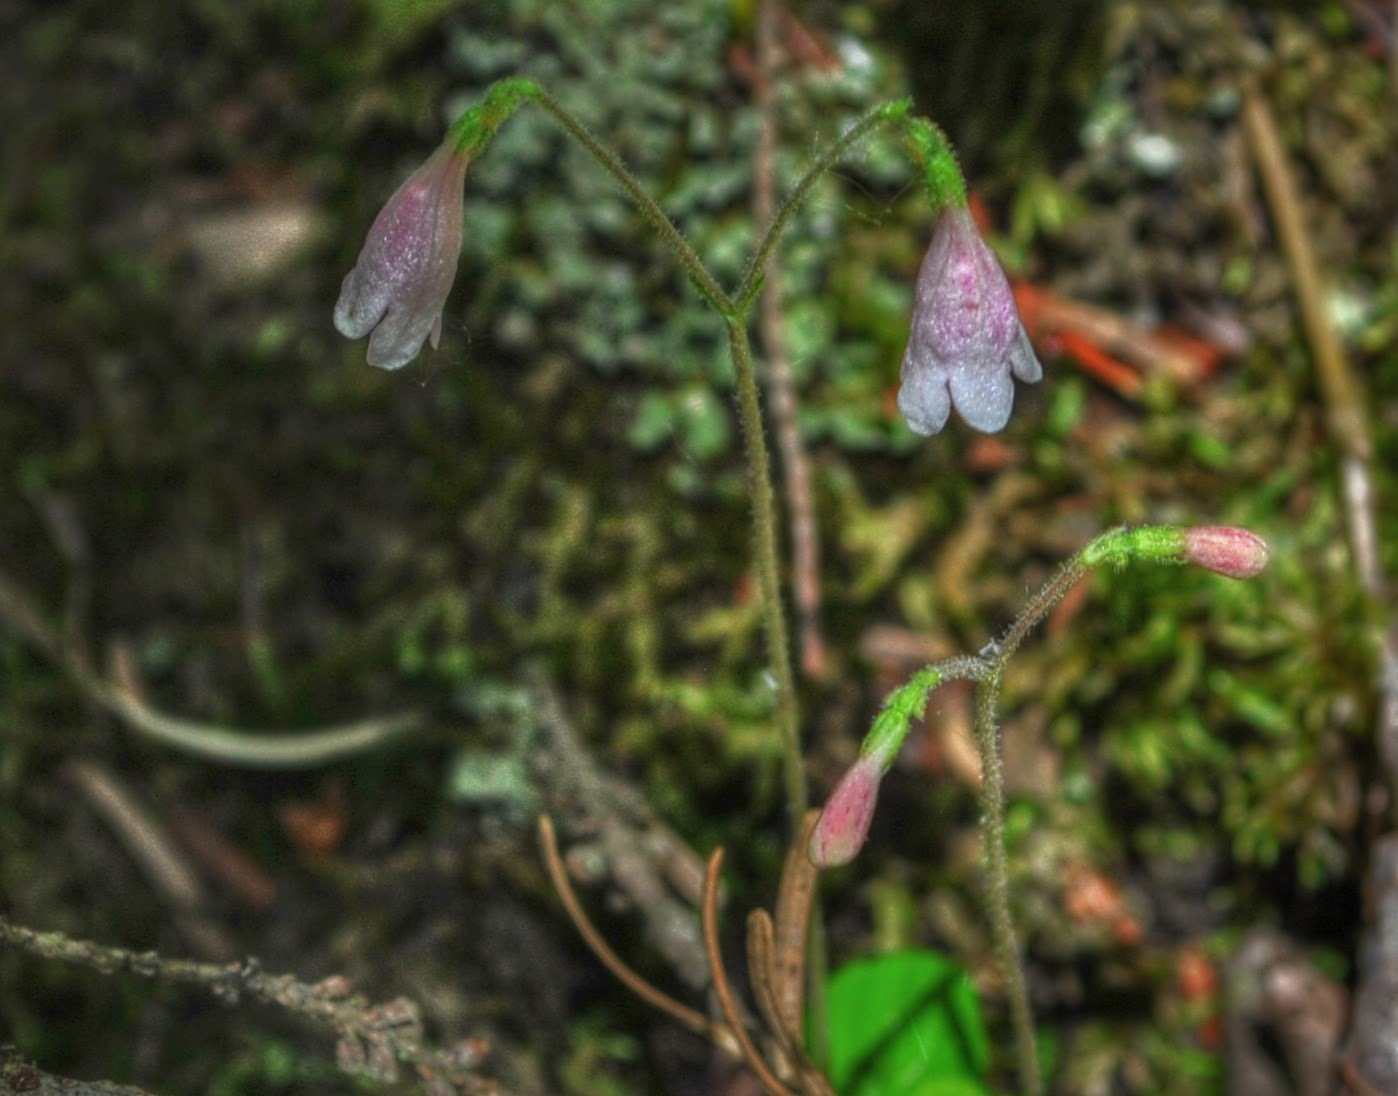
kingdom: Plantae
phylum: Tracheophyta
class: Magnoliopsida
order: Dipsacales
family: Caprifoliaceae
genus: Linnaea
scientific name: Linnaea borealis
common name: Twinflower
